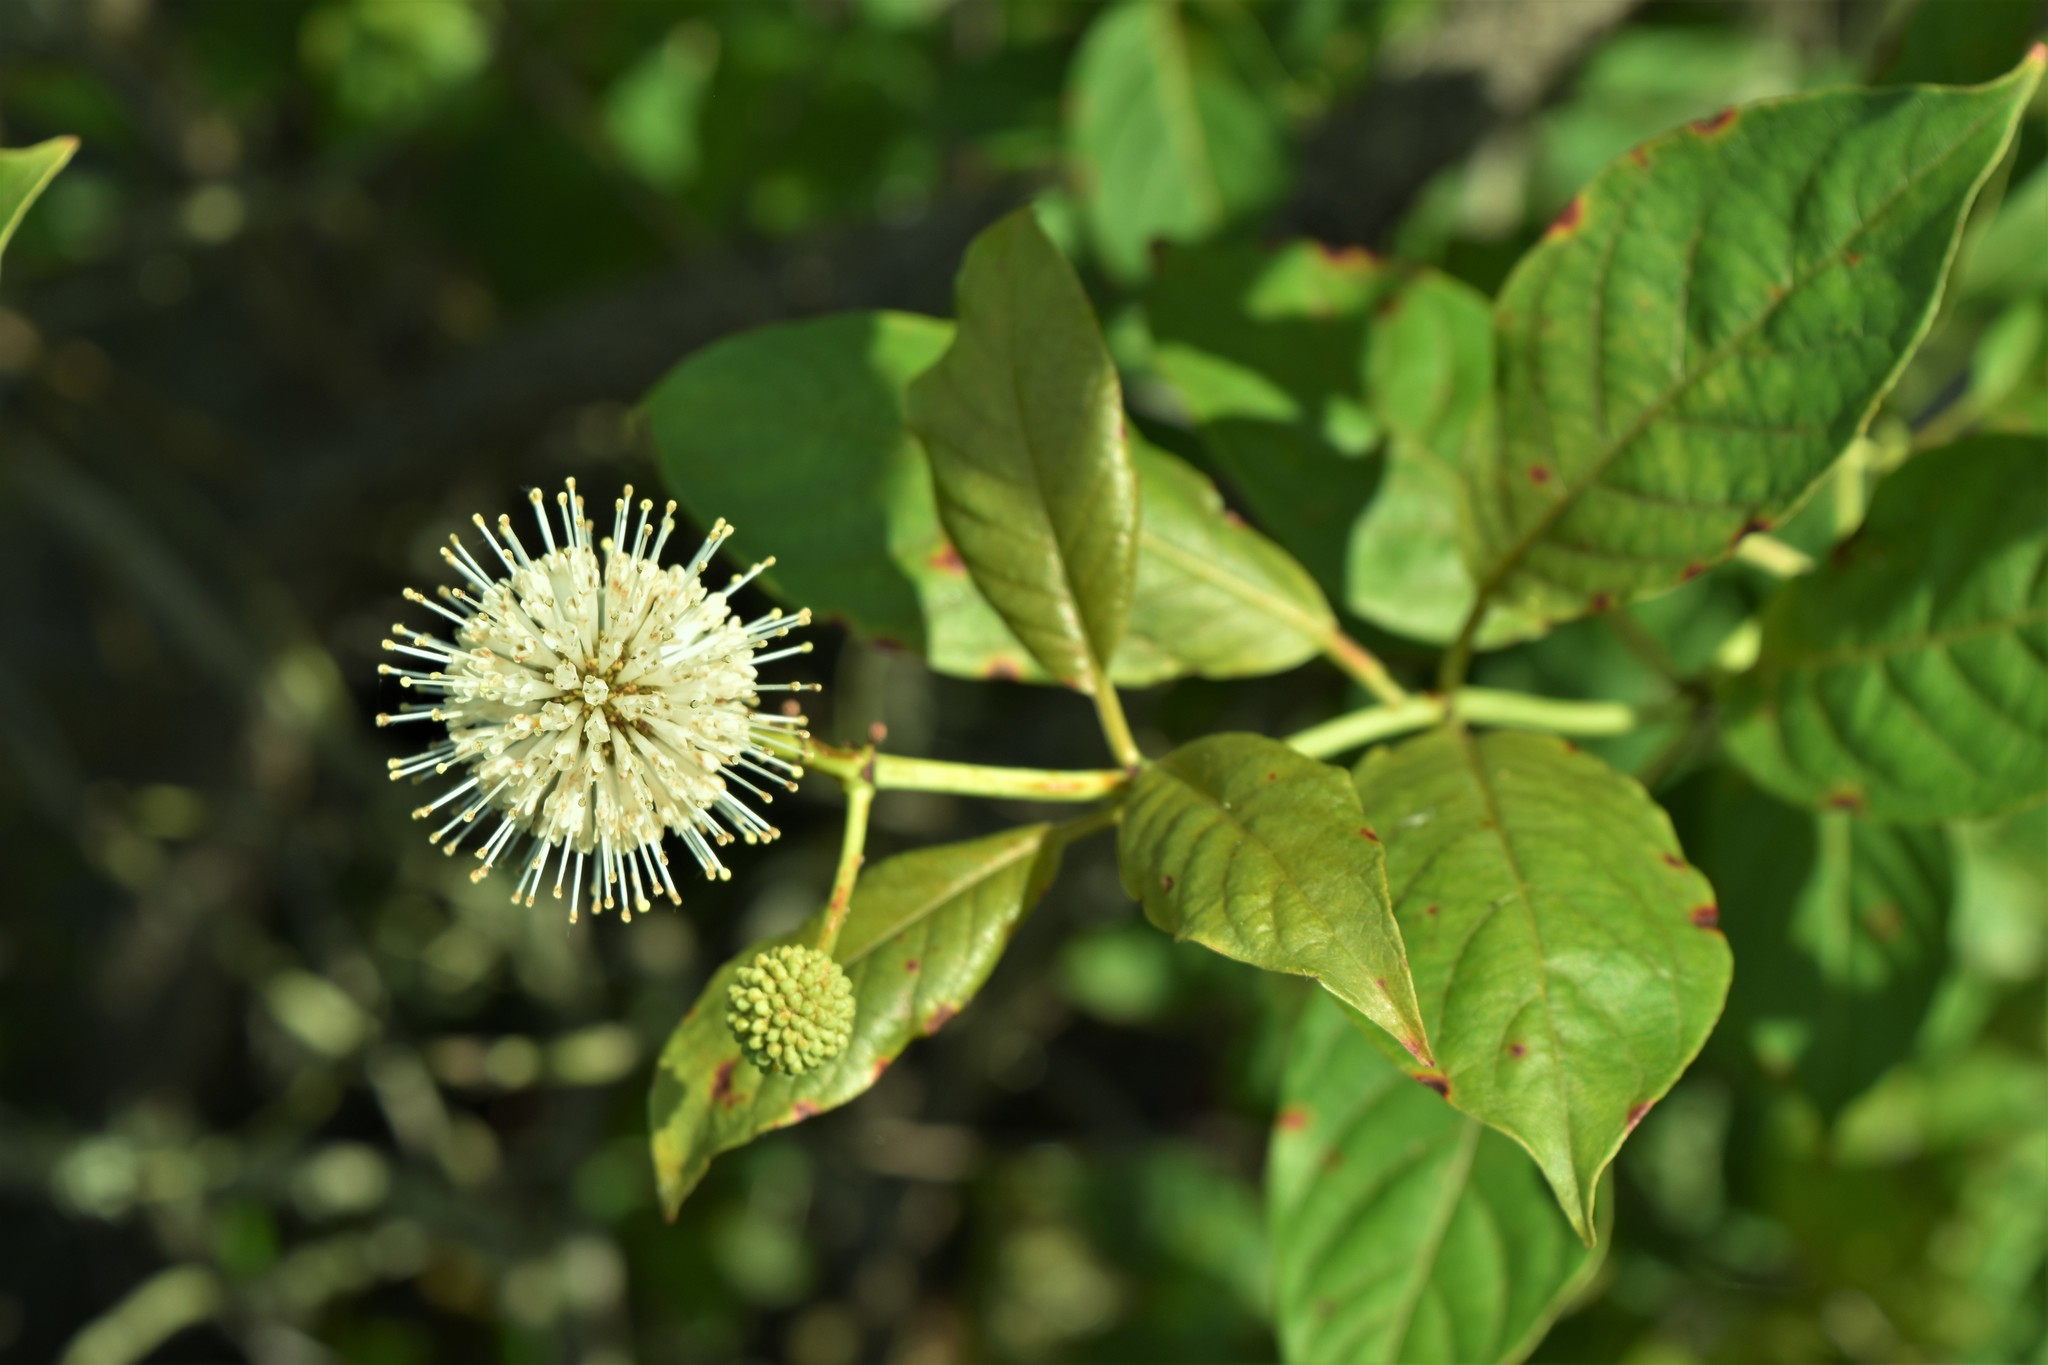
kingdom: Plantae
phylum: Tracheophyta
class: Magnoliopsida
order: Gentianales
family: Rubiaceae
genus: Cephalanthus
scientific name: Cephalanthus occidentalis
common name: Button-willow
